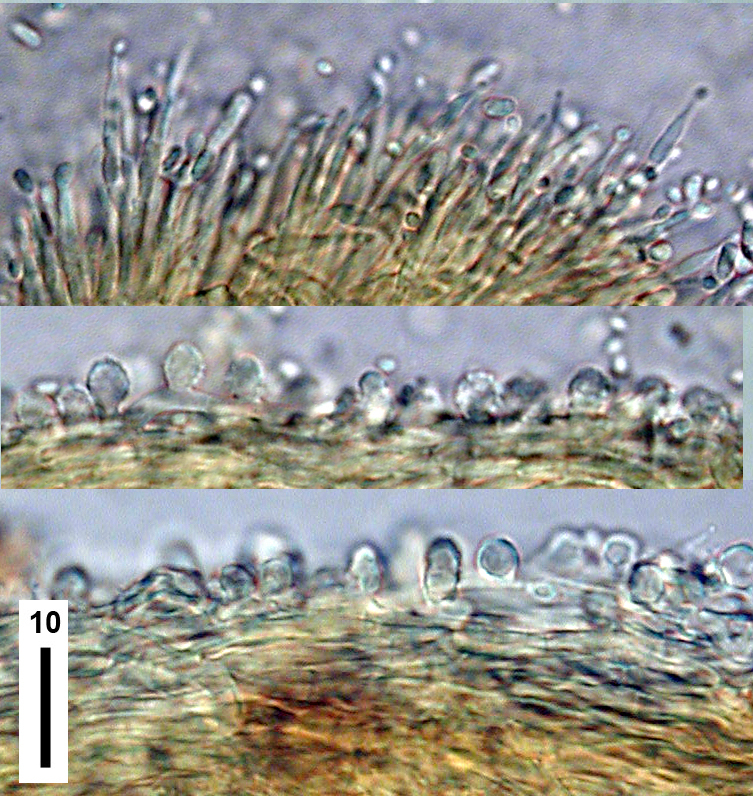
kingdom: Fungi
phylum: Ascomycota
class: Sordariomycetes
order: Hypocreales
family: Ophiocordycipitaceae
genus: Polycephalomyces
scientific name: Polycephalomyces tomentosus
